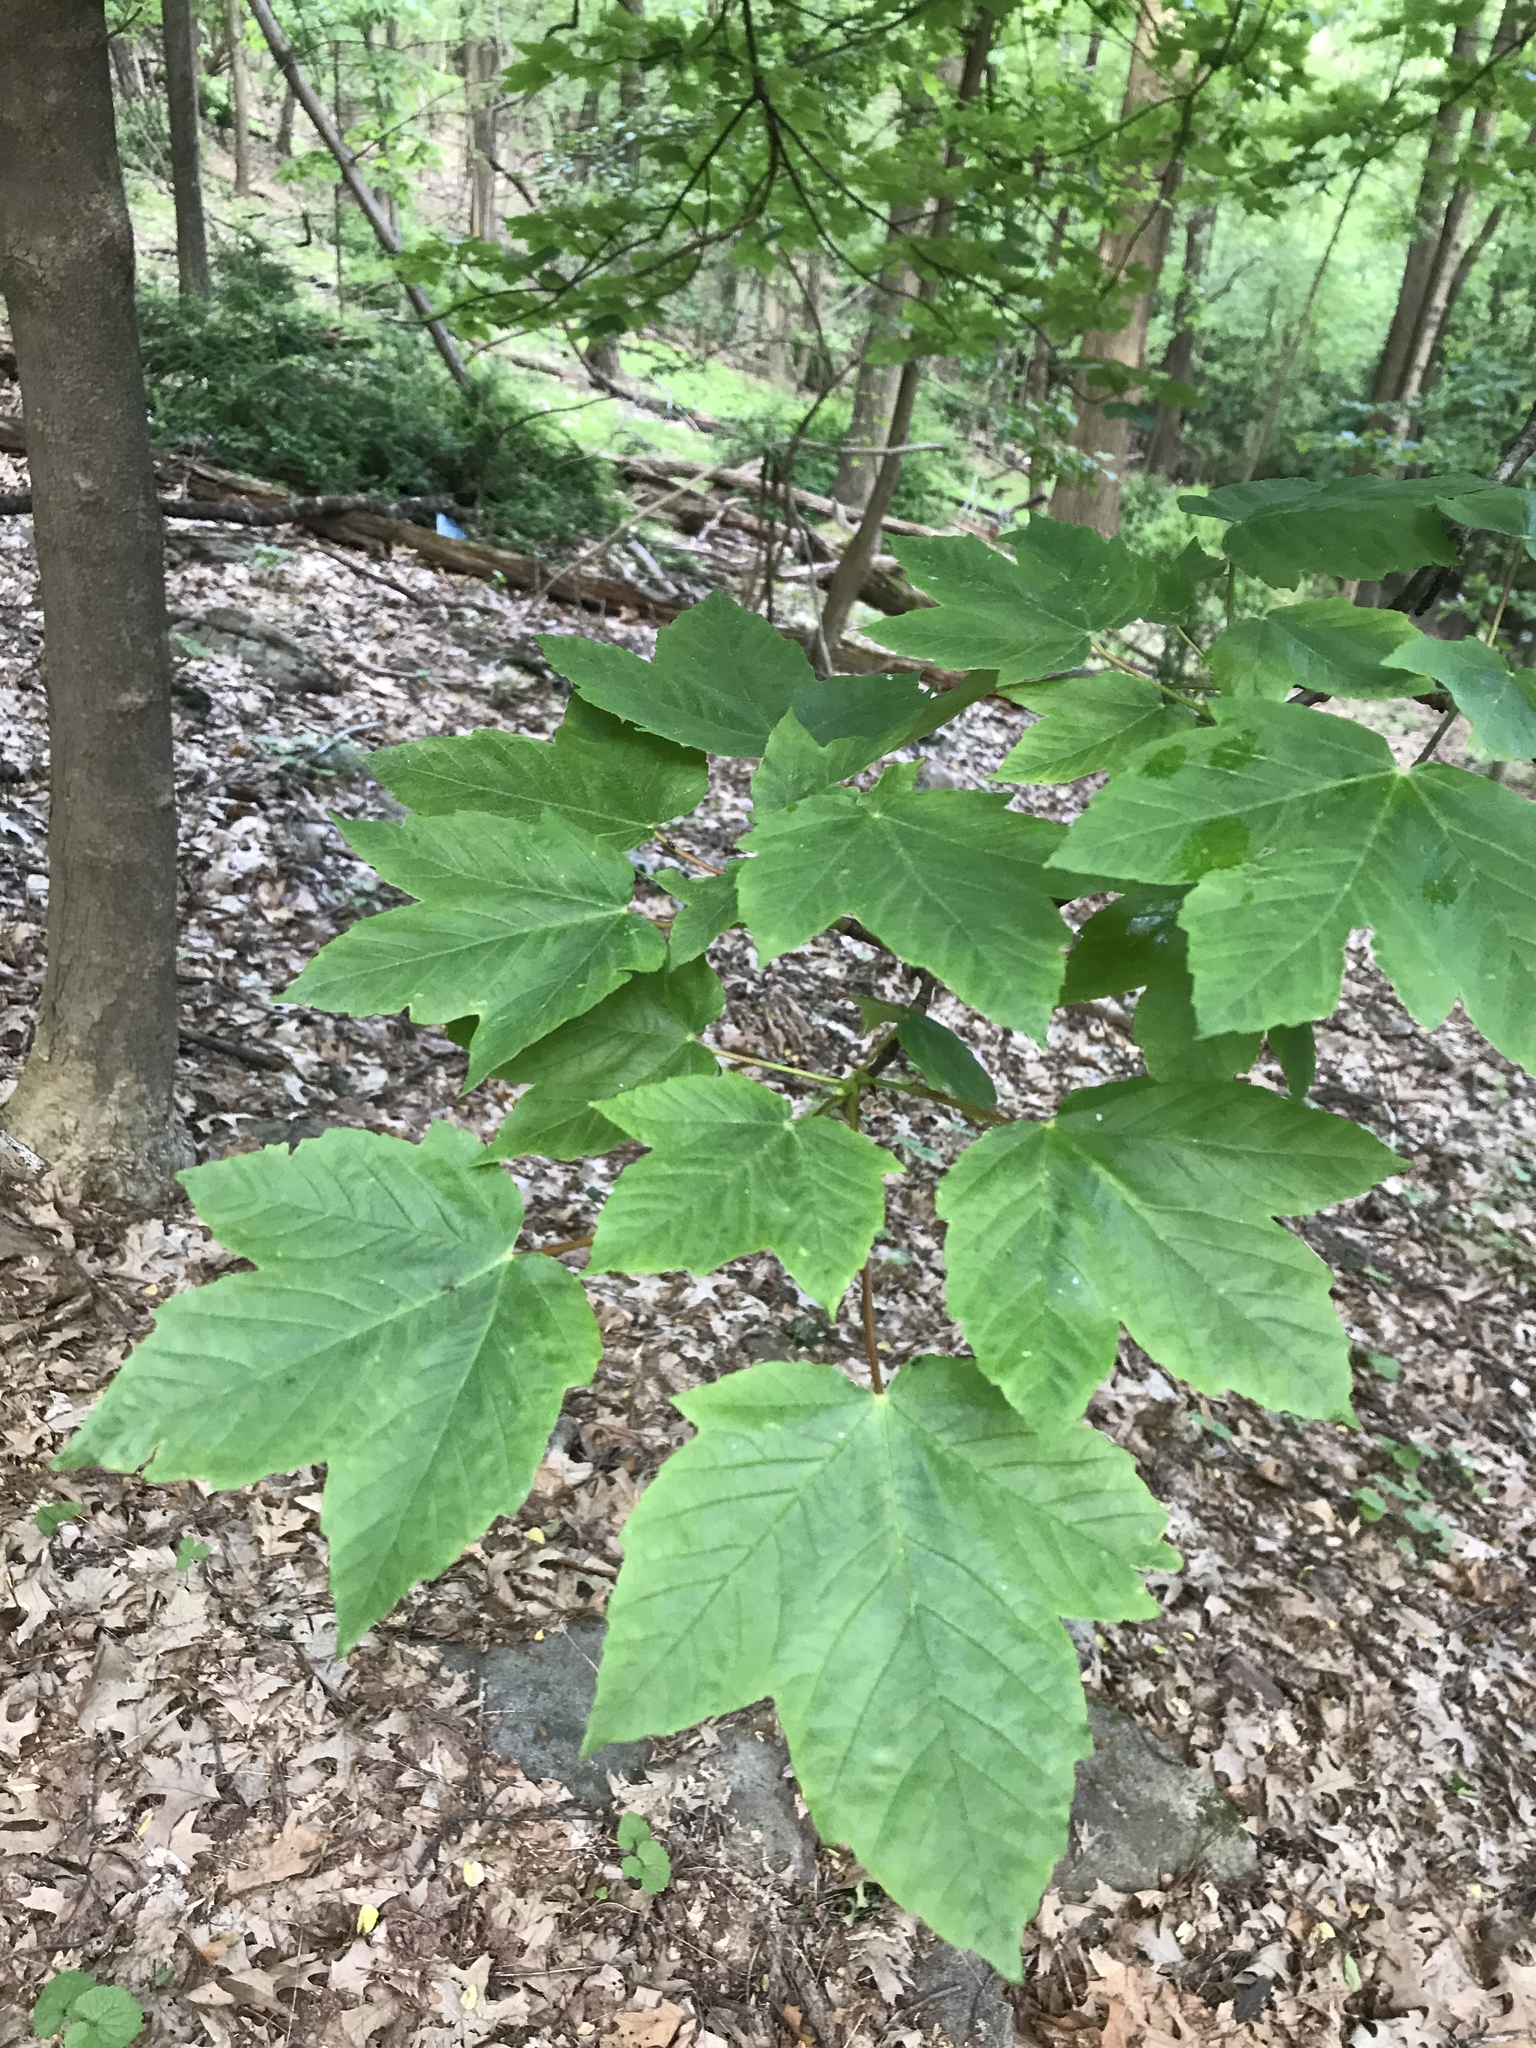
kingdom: Plantae
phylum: Tracheophyta
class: Magnoliopsida
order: Sapindales
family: Sapindaceae
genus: Acer
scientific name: Acer pseudoplatanus
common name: Sycamore
